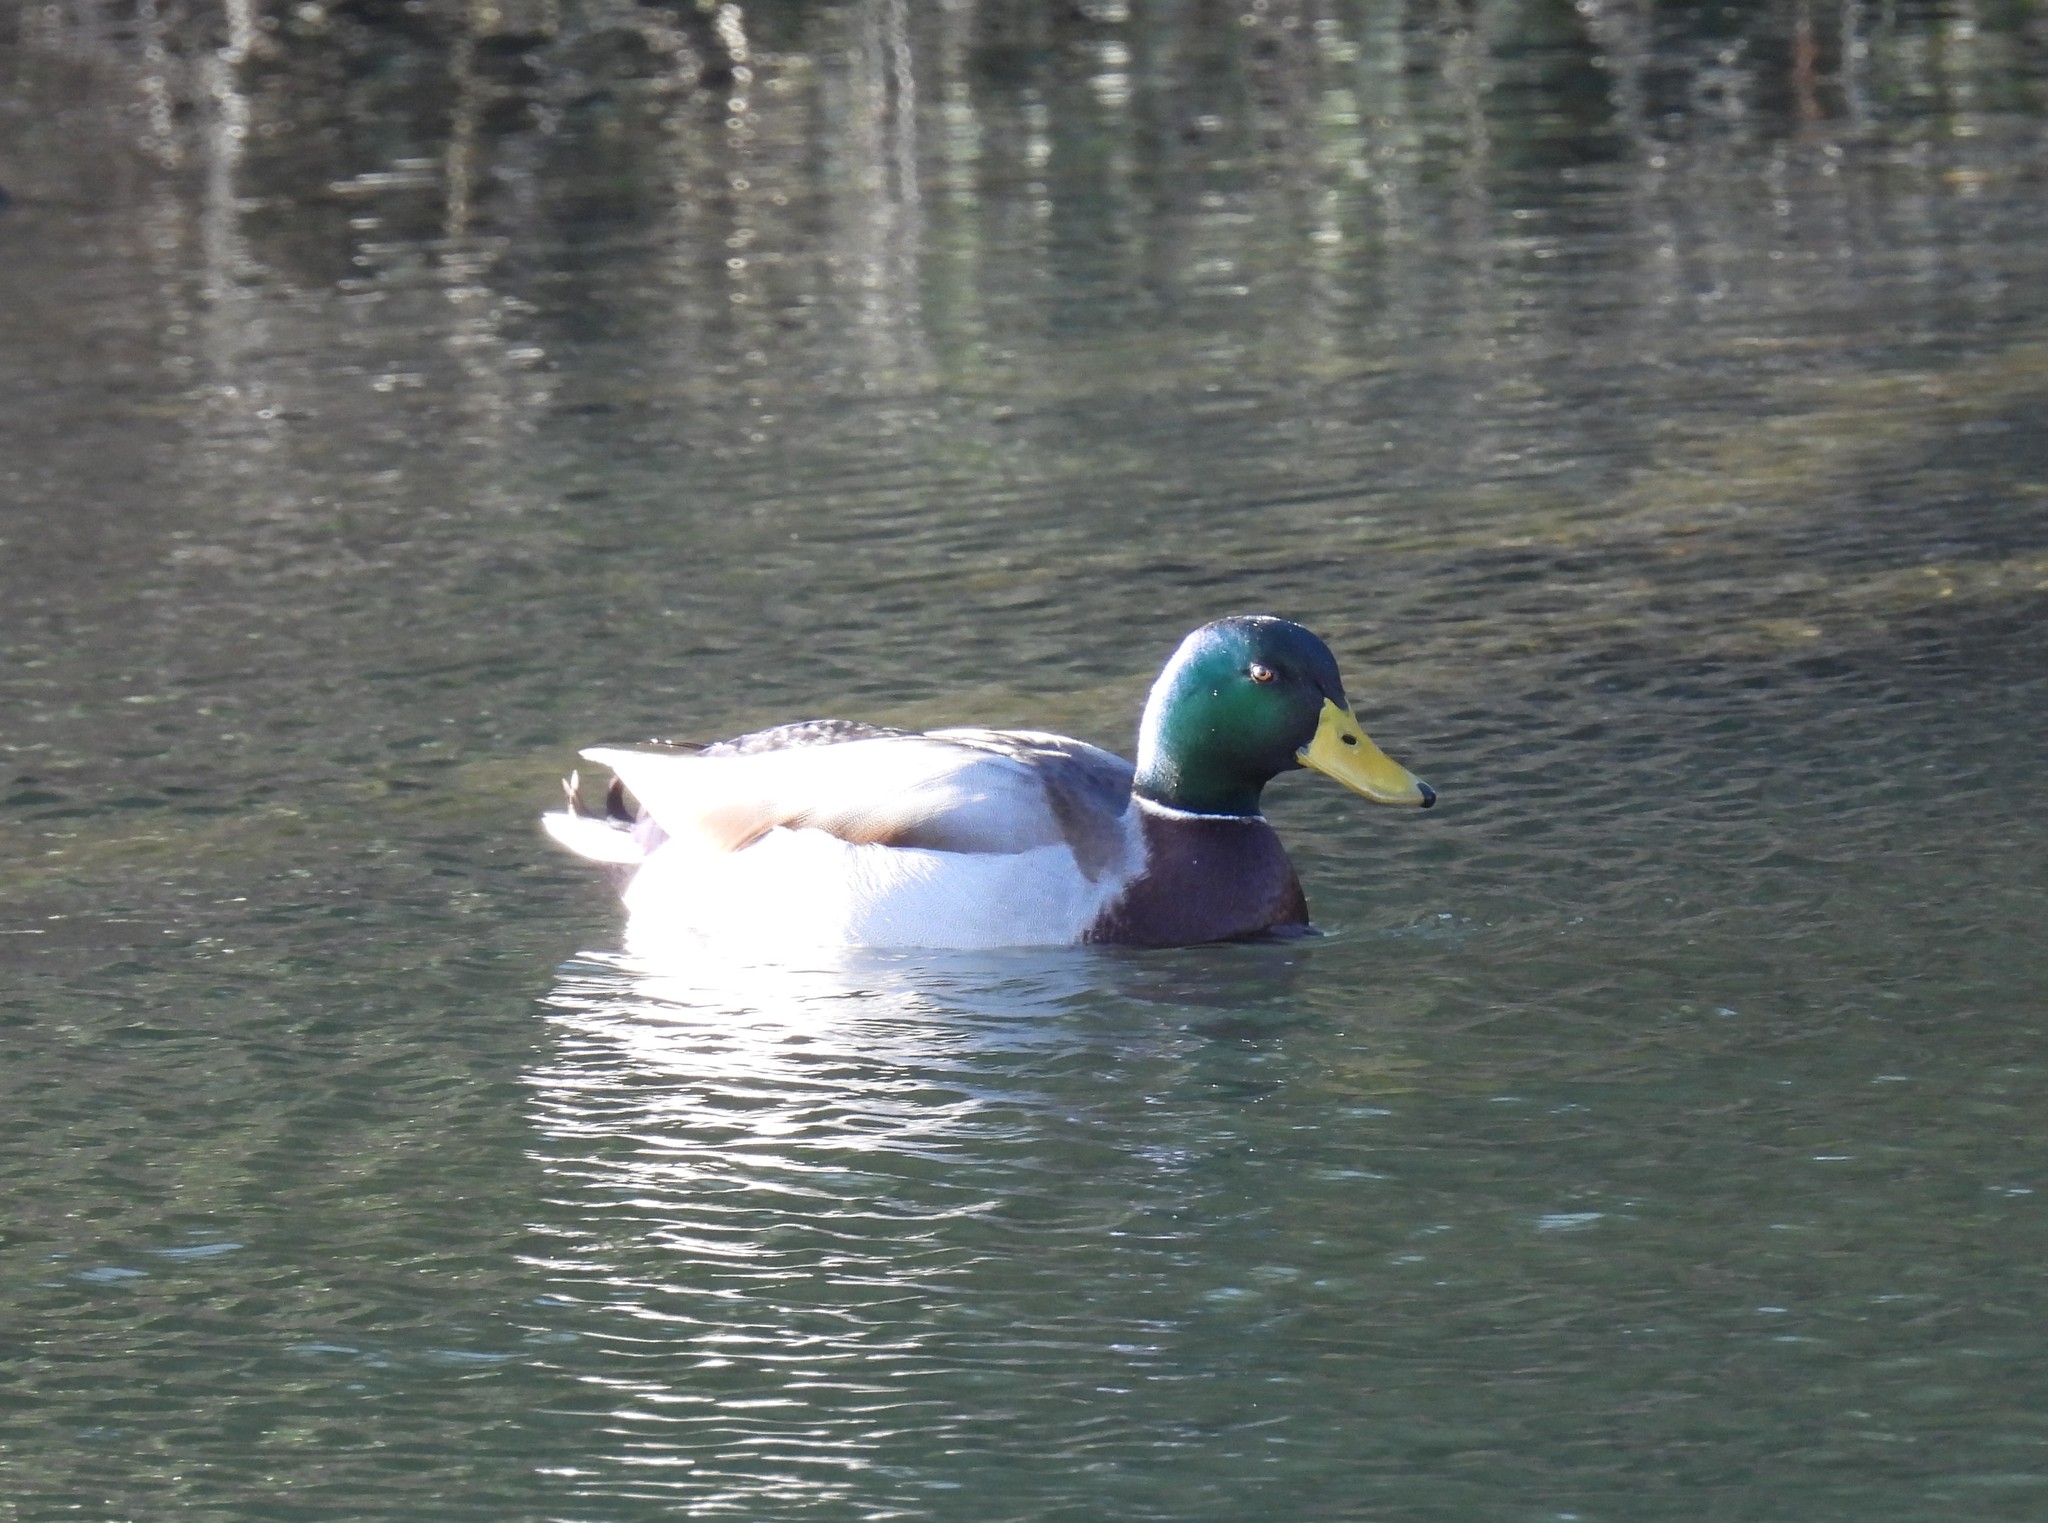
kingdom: Animalia
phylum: Chordata
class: Aves
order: Anseriformes
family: Anatidae
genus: Anas
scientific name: Anas platyrhynchos
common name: Mallard
